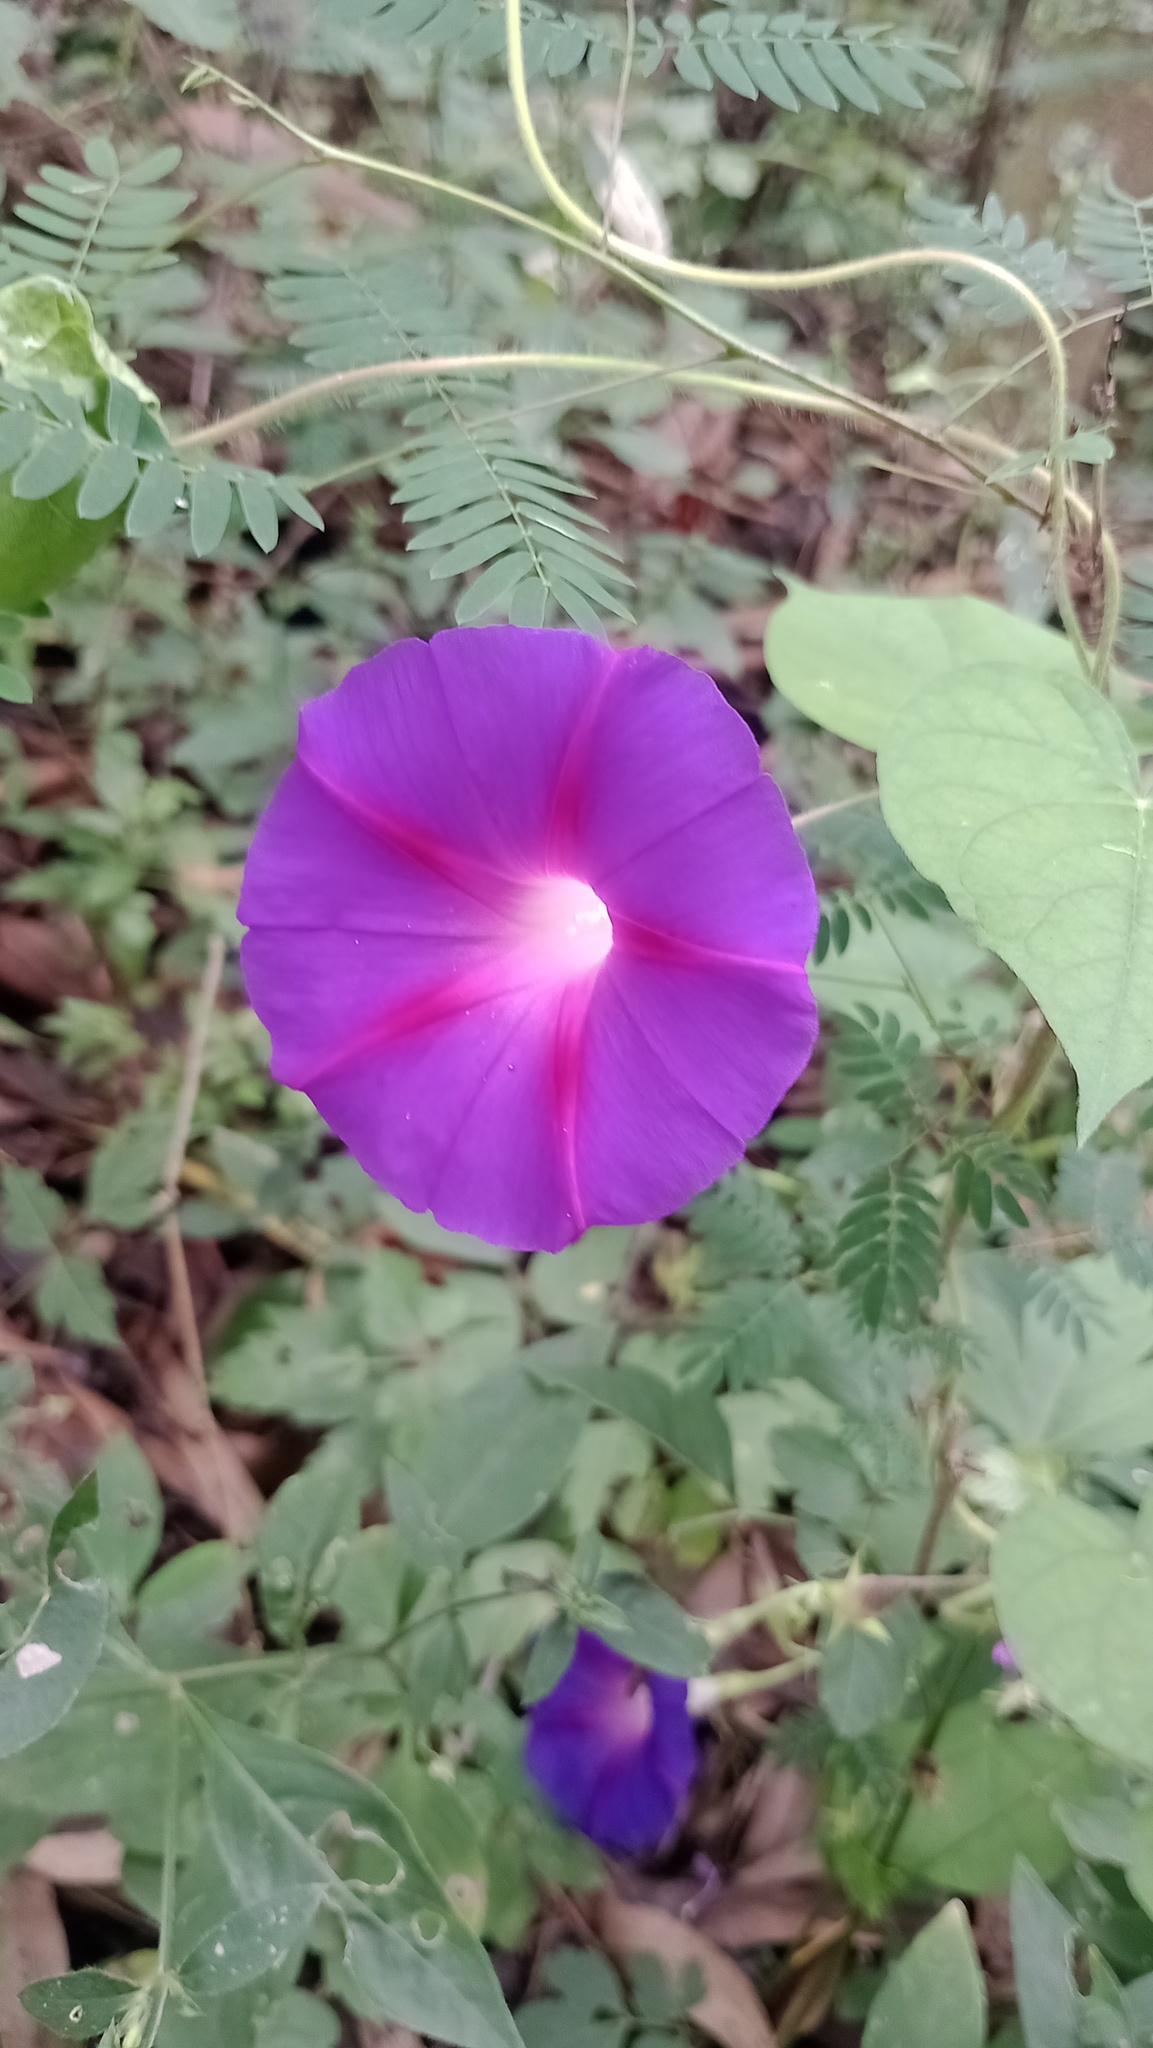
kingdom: Plantae
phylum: Tracheophyta
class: Magnoliopsida
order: Solanales
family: Convolvulaceae
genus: Ipomoea
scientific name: Ipomoea purpurea
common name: Common morning-glory
